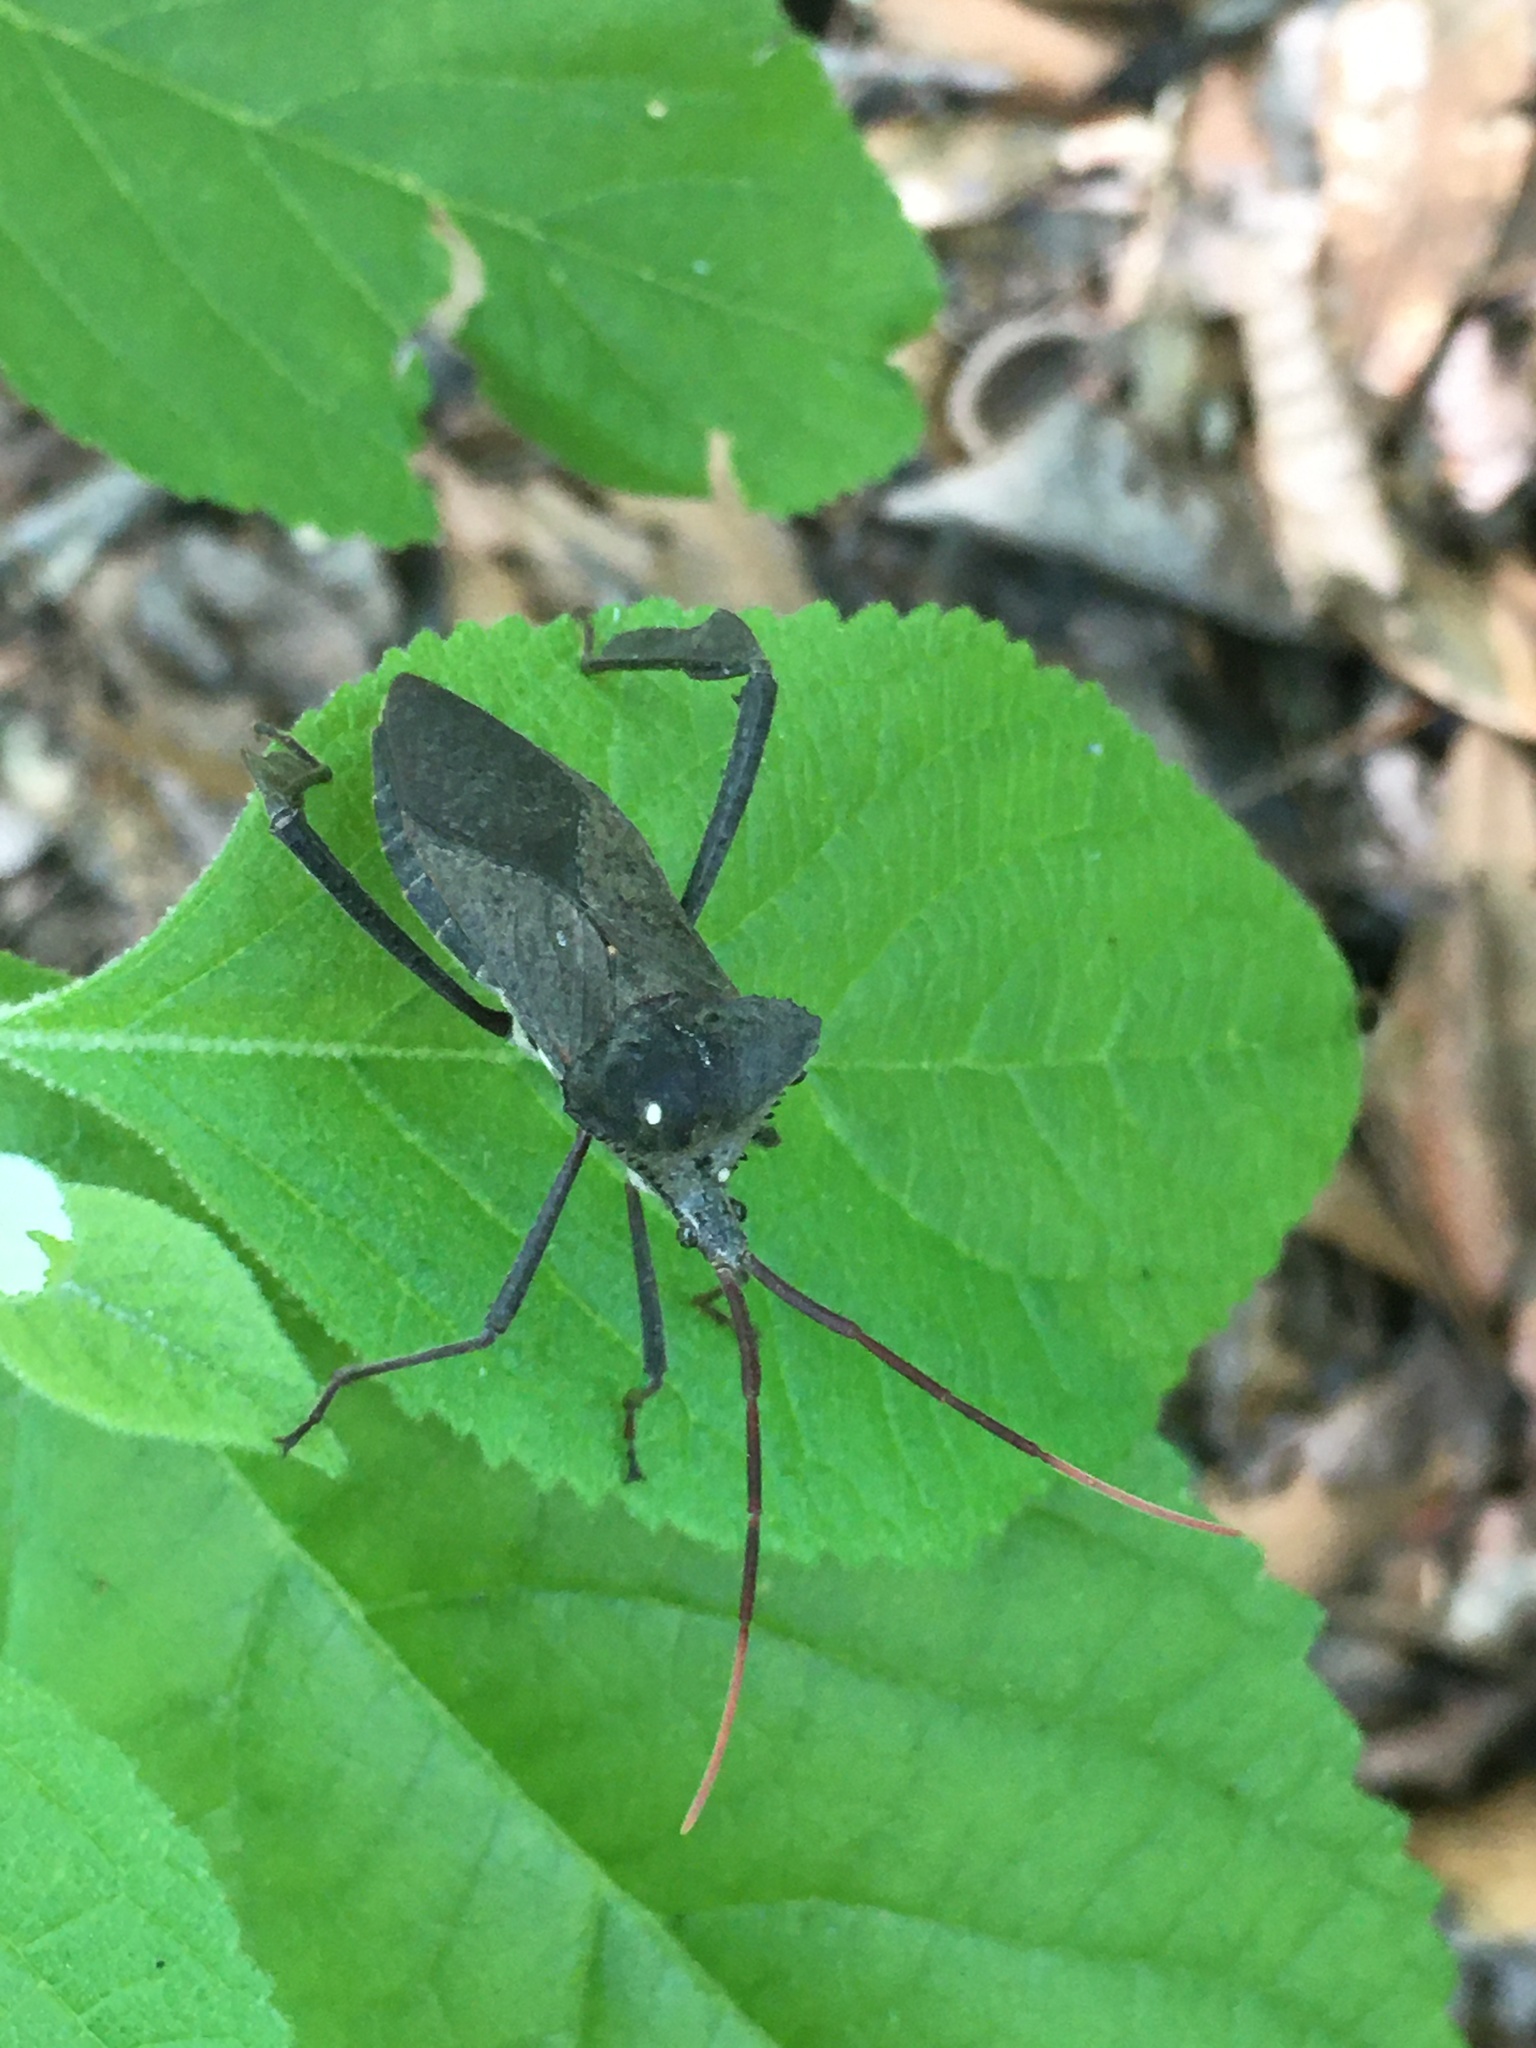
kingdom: Animalia
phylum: Arthropoda
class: Insecta
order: Hemiptera
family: Coreidae
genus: Acanthocephala
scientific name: Acanthocephala declivis
